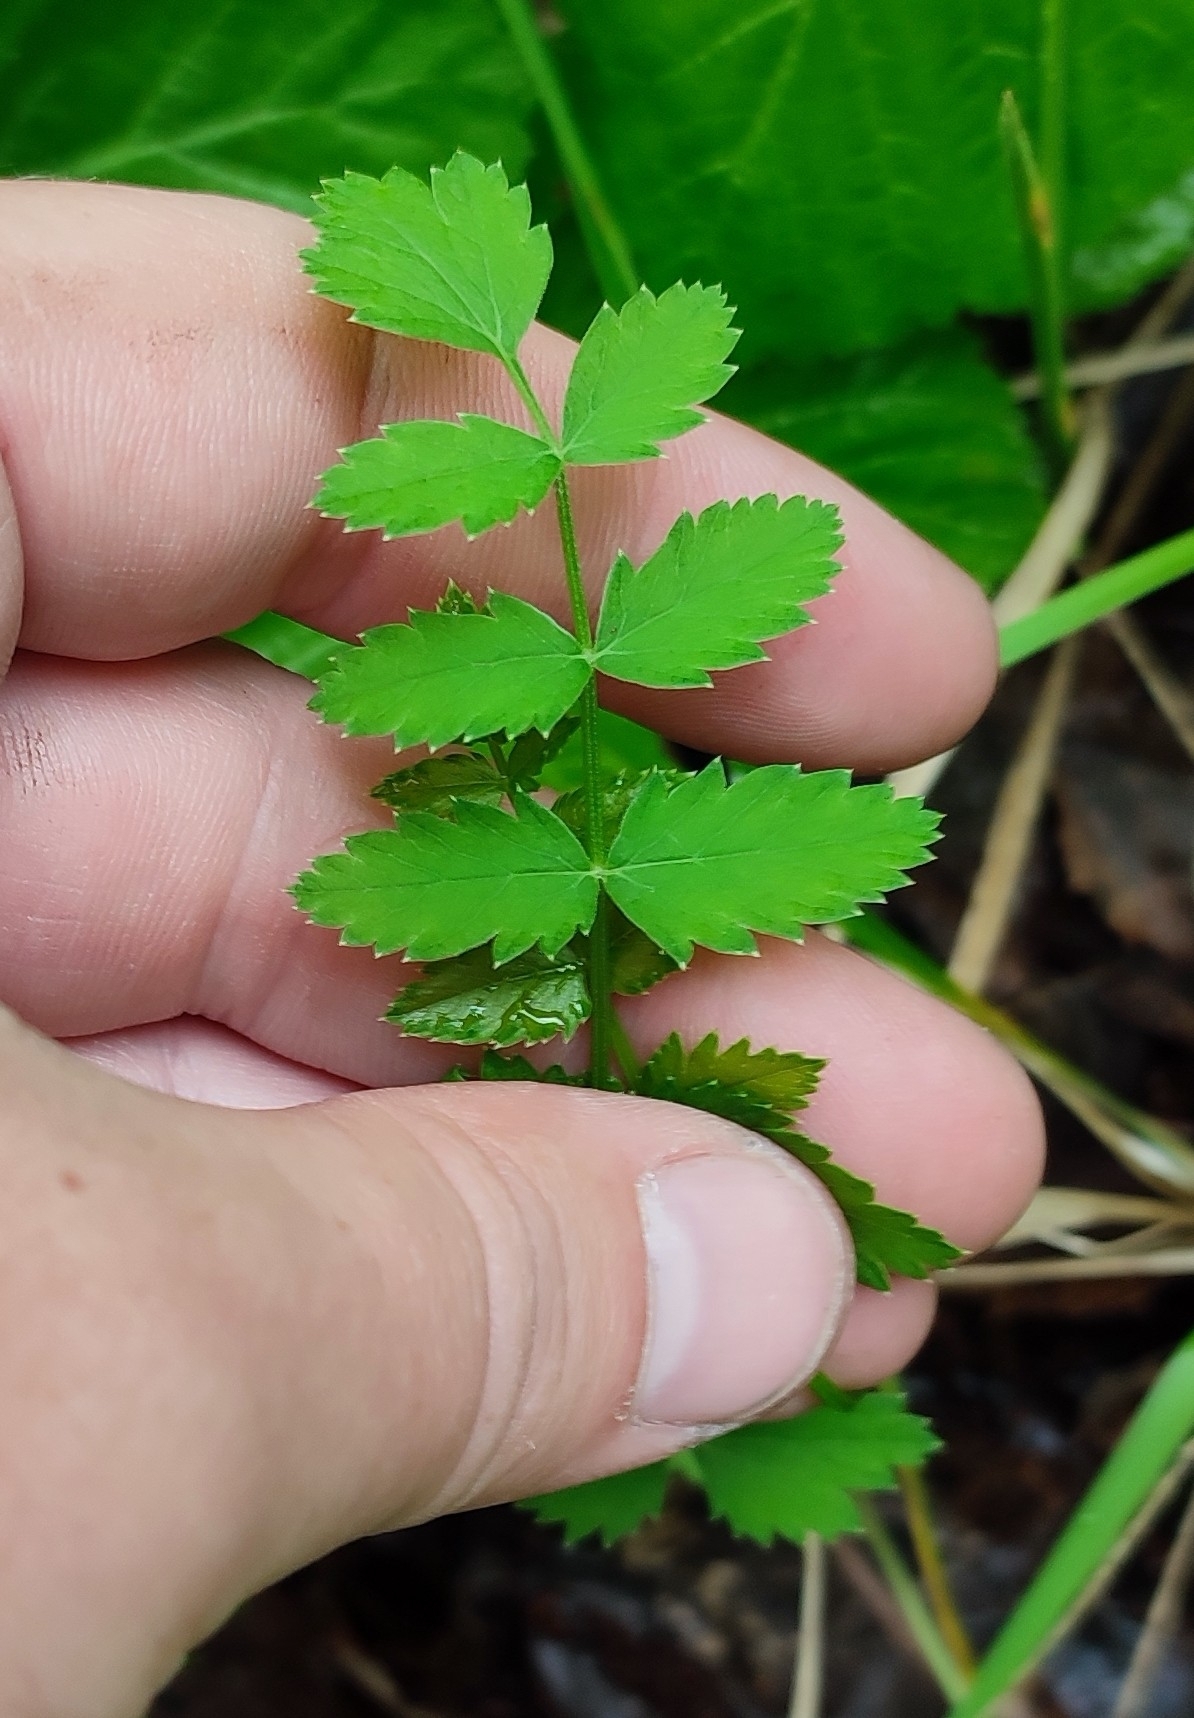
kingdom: Plantae
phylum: Tracheophyta
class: Magnoliopsida
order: Apiales
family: Apiaceae
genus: Pimpinella
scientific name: Pimpinella saxifraga
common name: Burnet-saxifrage
